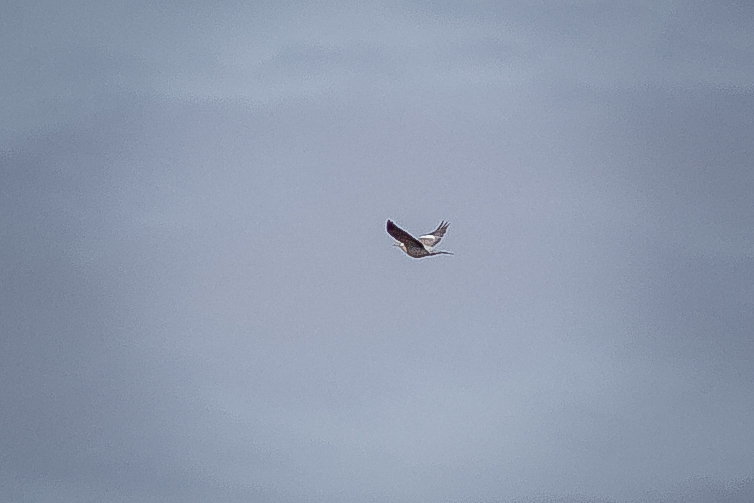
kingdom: Animalia
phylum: Chordata
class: Aves
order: Columbiformes
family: Columbidae
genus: Columba
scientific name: Columba palumbus
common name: Common wood pigeon
